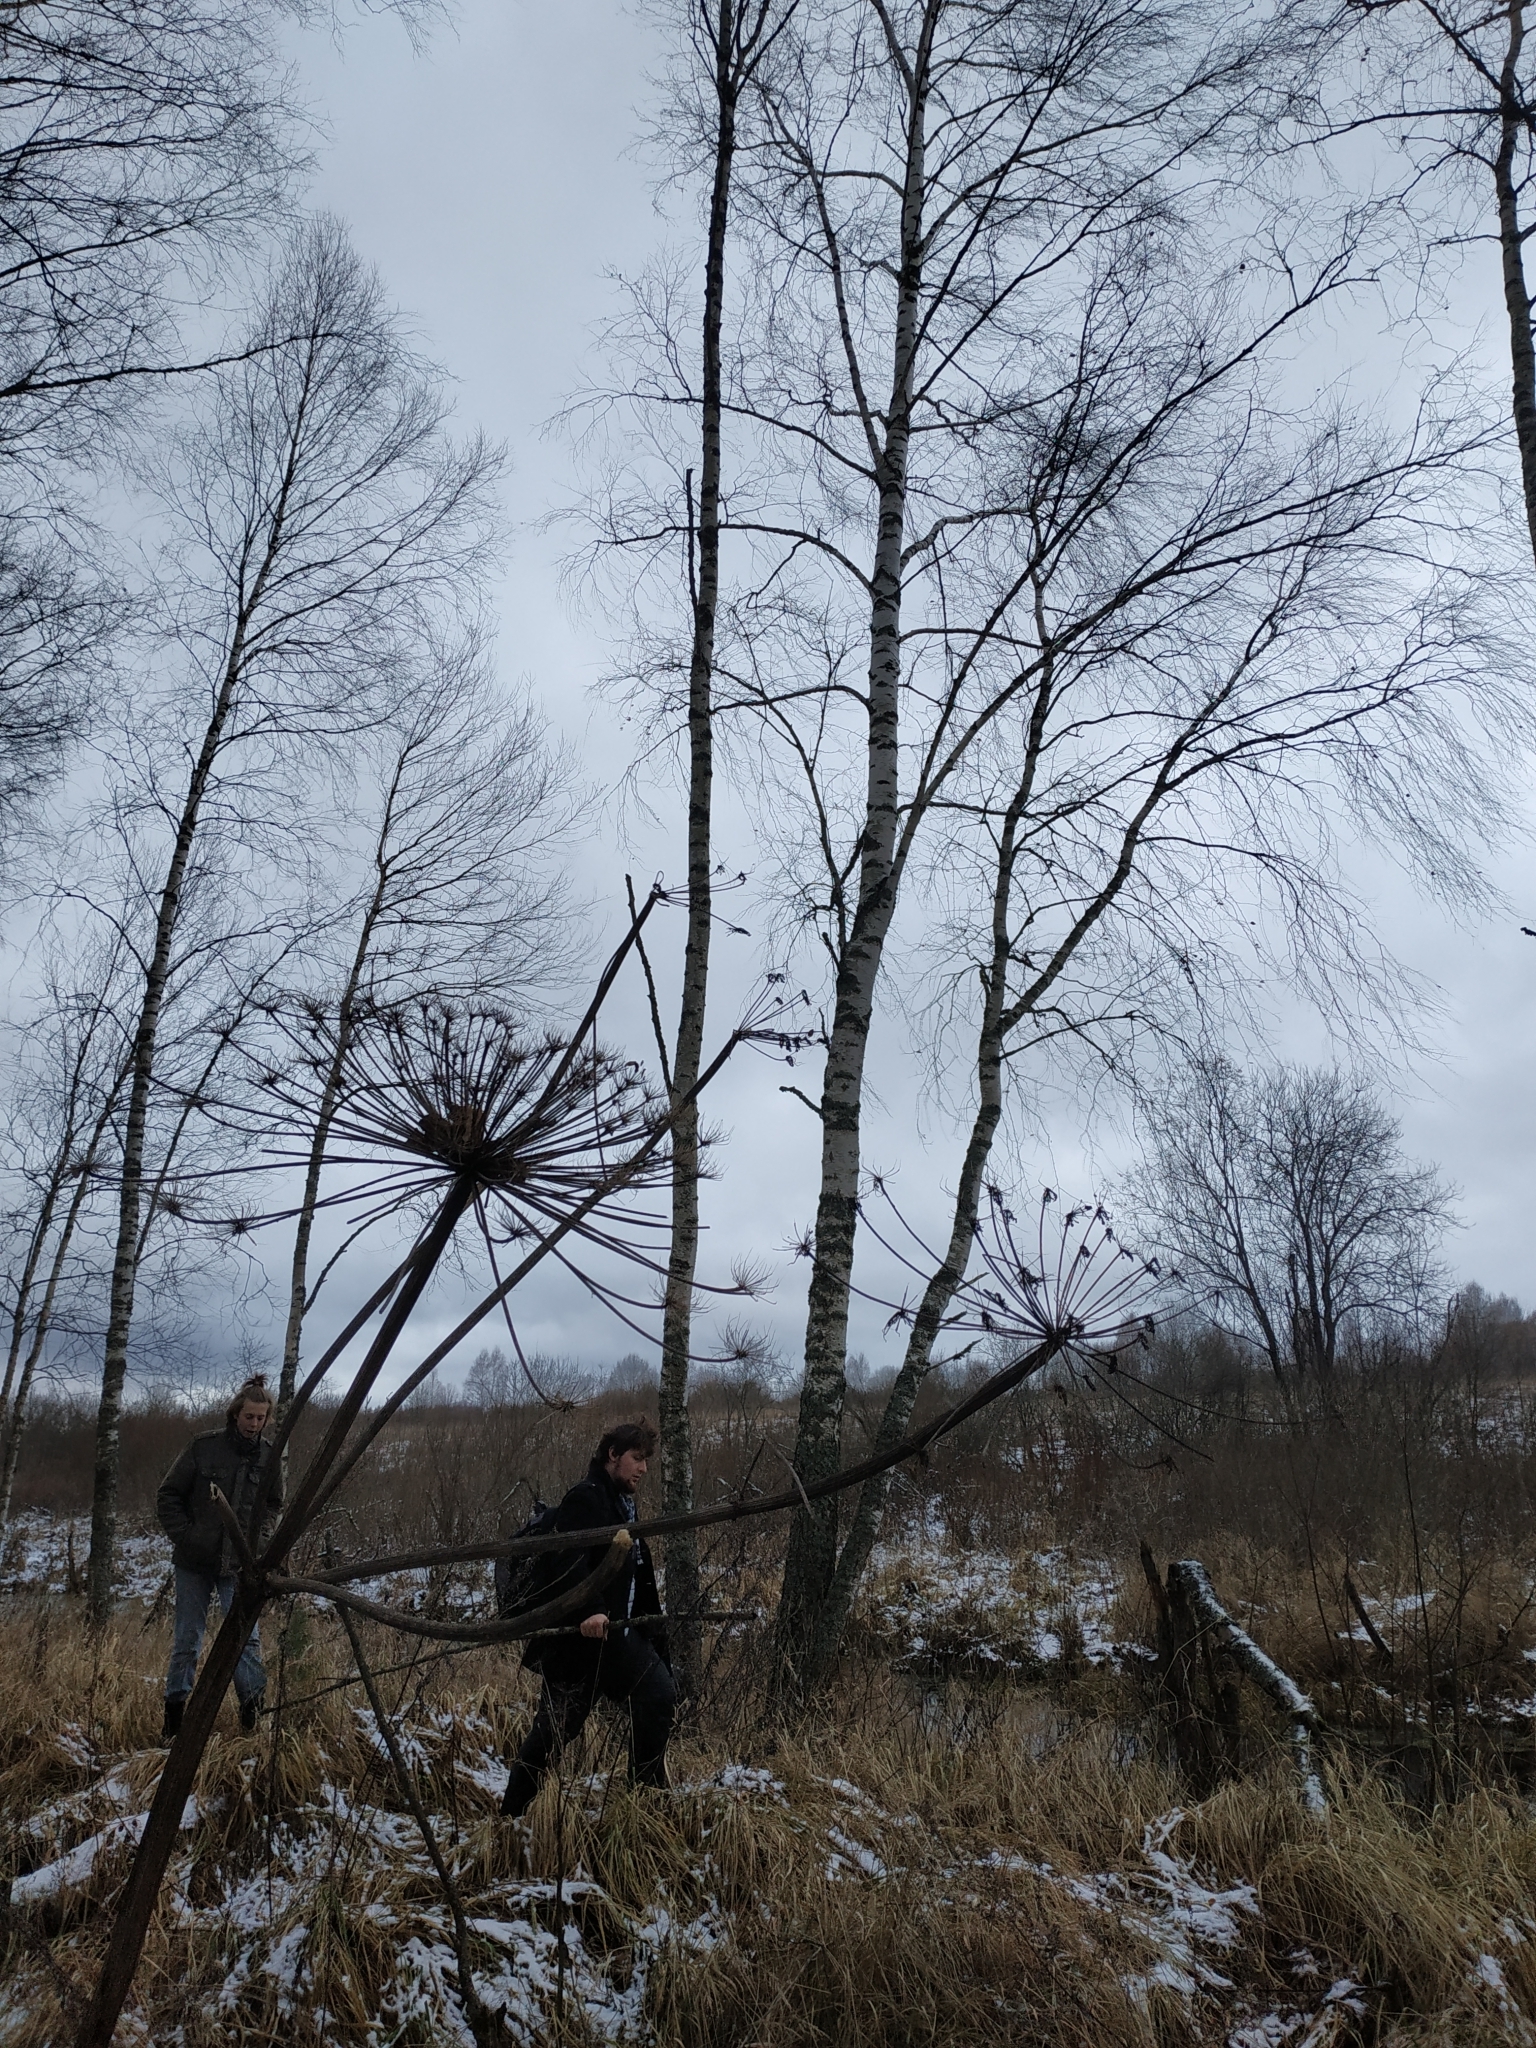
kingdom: Plantae
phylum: Tracheophyta
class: Magnoliopsida
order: Apiales
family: Apiaceae
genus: Heracleum
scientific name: Heracleum sosnowskyi
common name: Sosnowsky's hogweed
